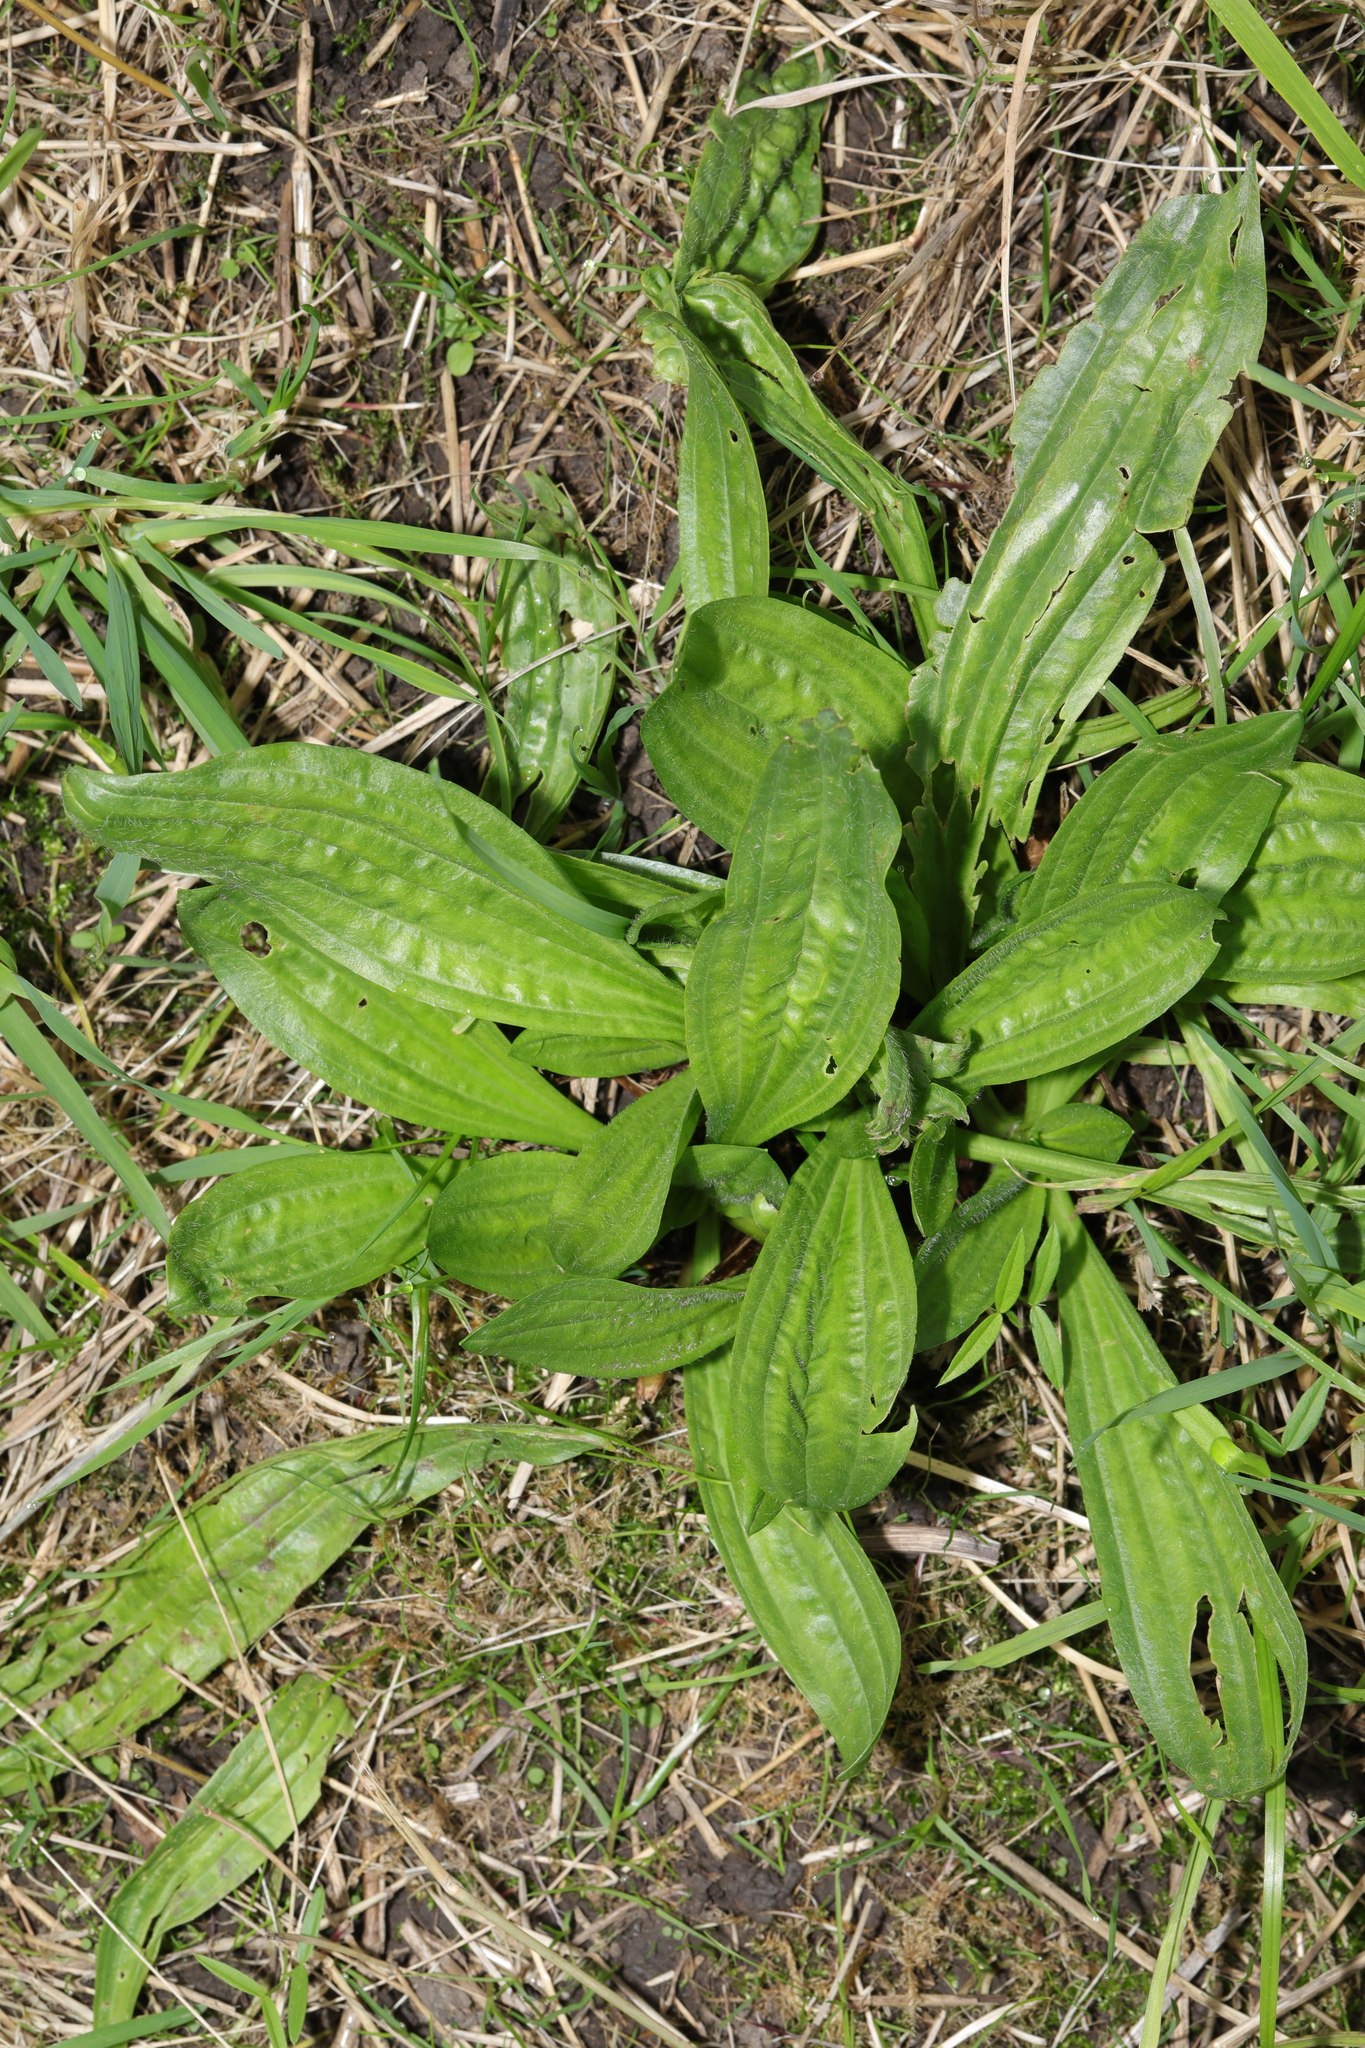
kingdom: Plantae
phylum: Tracheophyta
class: Magnoliopsida
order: Lamiales
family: Plantaginaceae
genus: Plantago
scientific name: Plantago lanceolata
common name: Ribwort plantain
